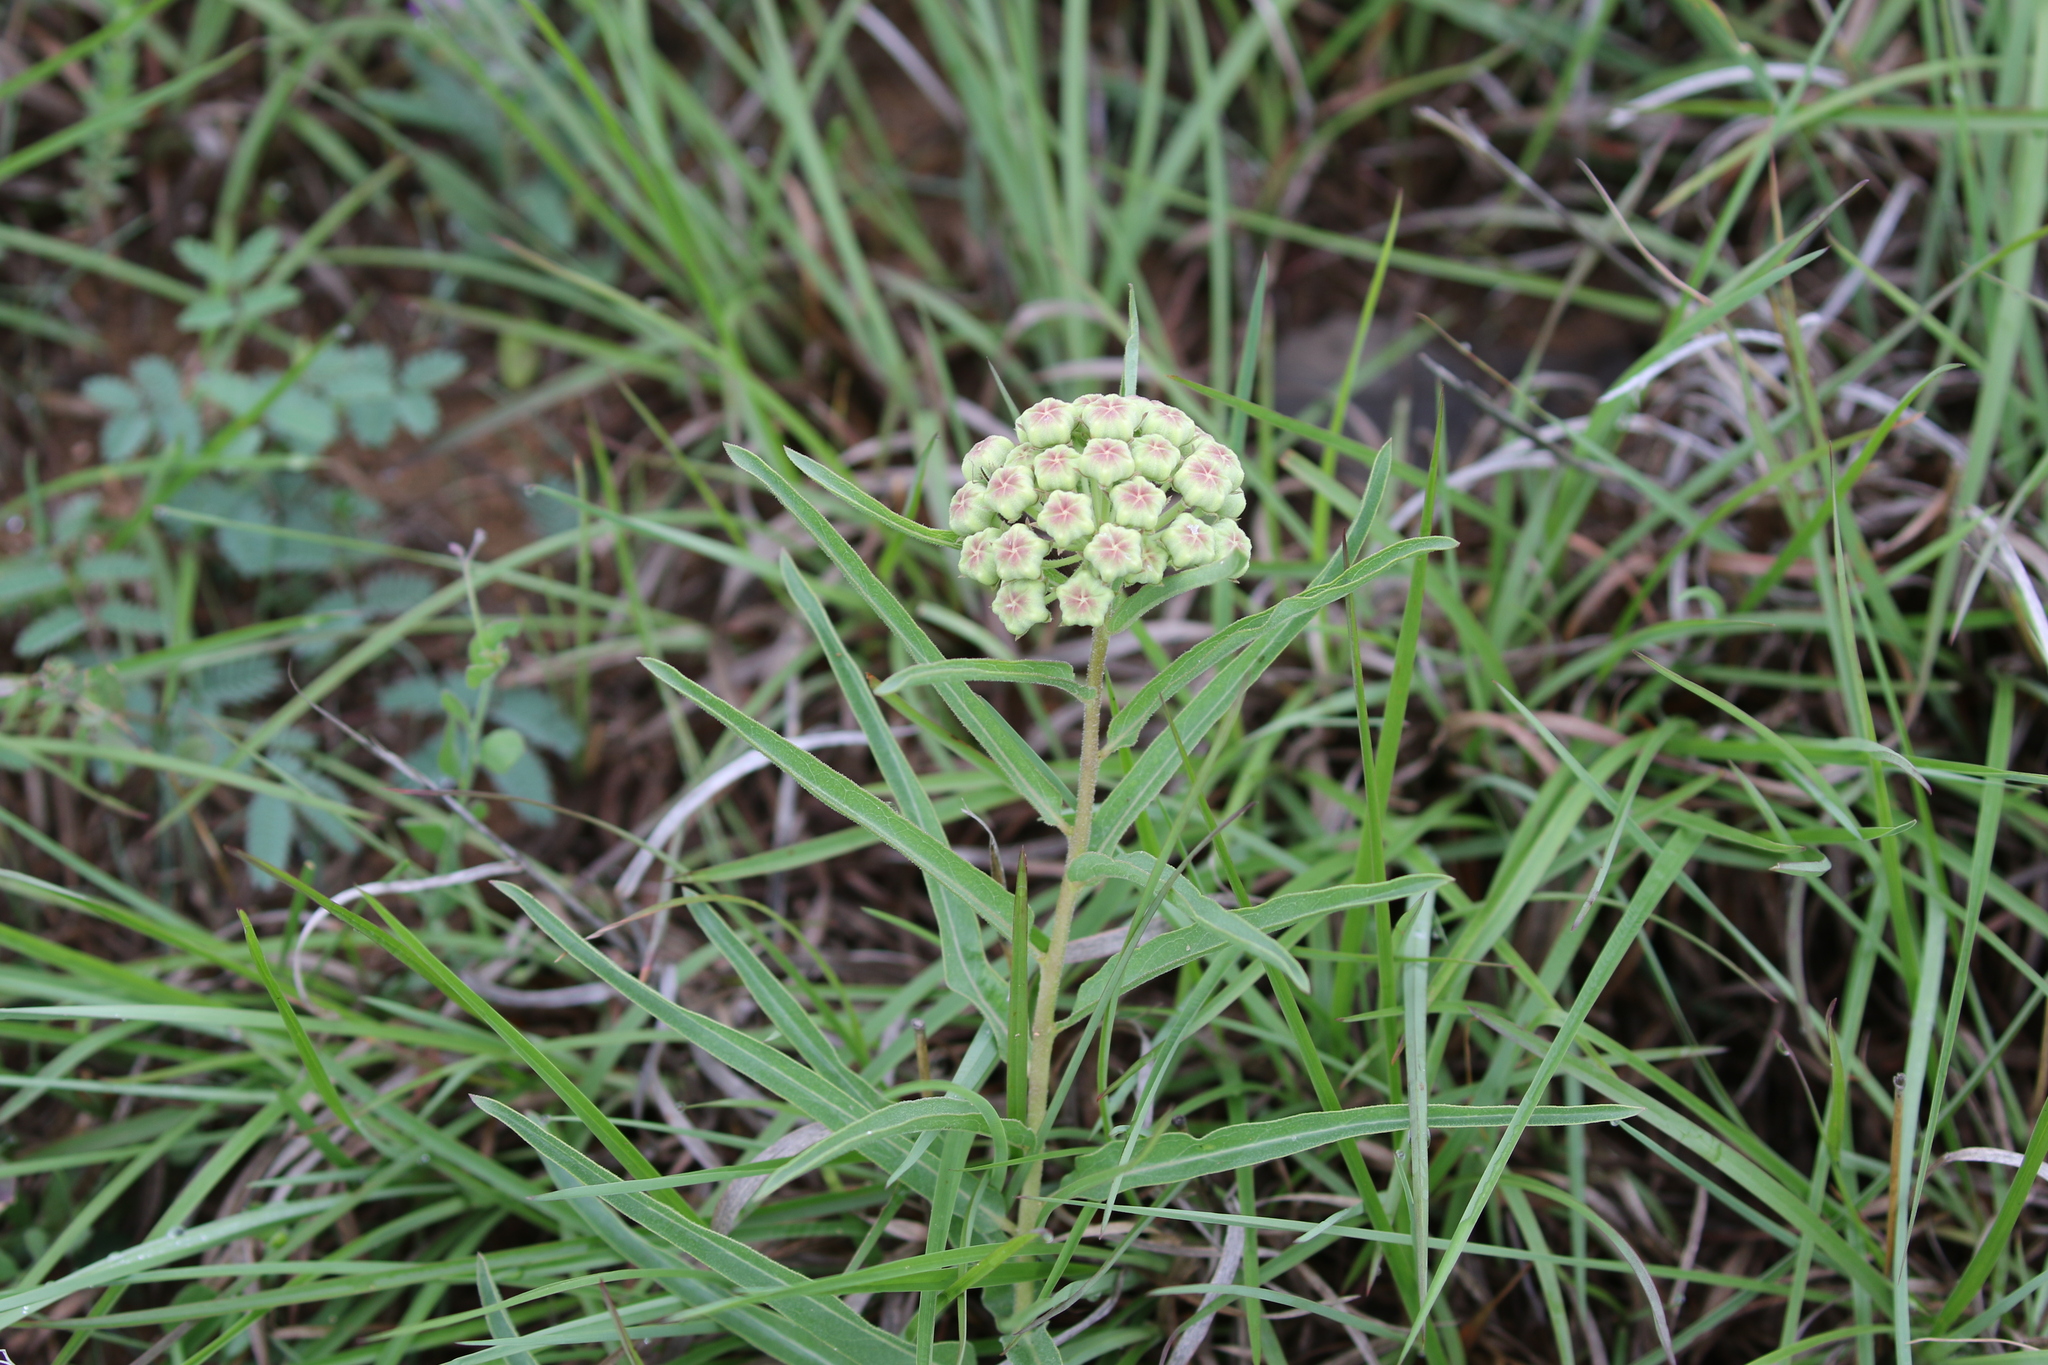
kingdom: Plantae
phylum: Tracheophyta
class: Magnoliopsida
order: Gentianales
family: Apocynaceae
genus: Asclepias
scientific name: Asclepias asperula
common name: Antelope horns
